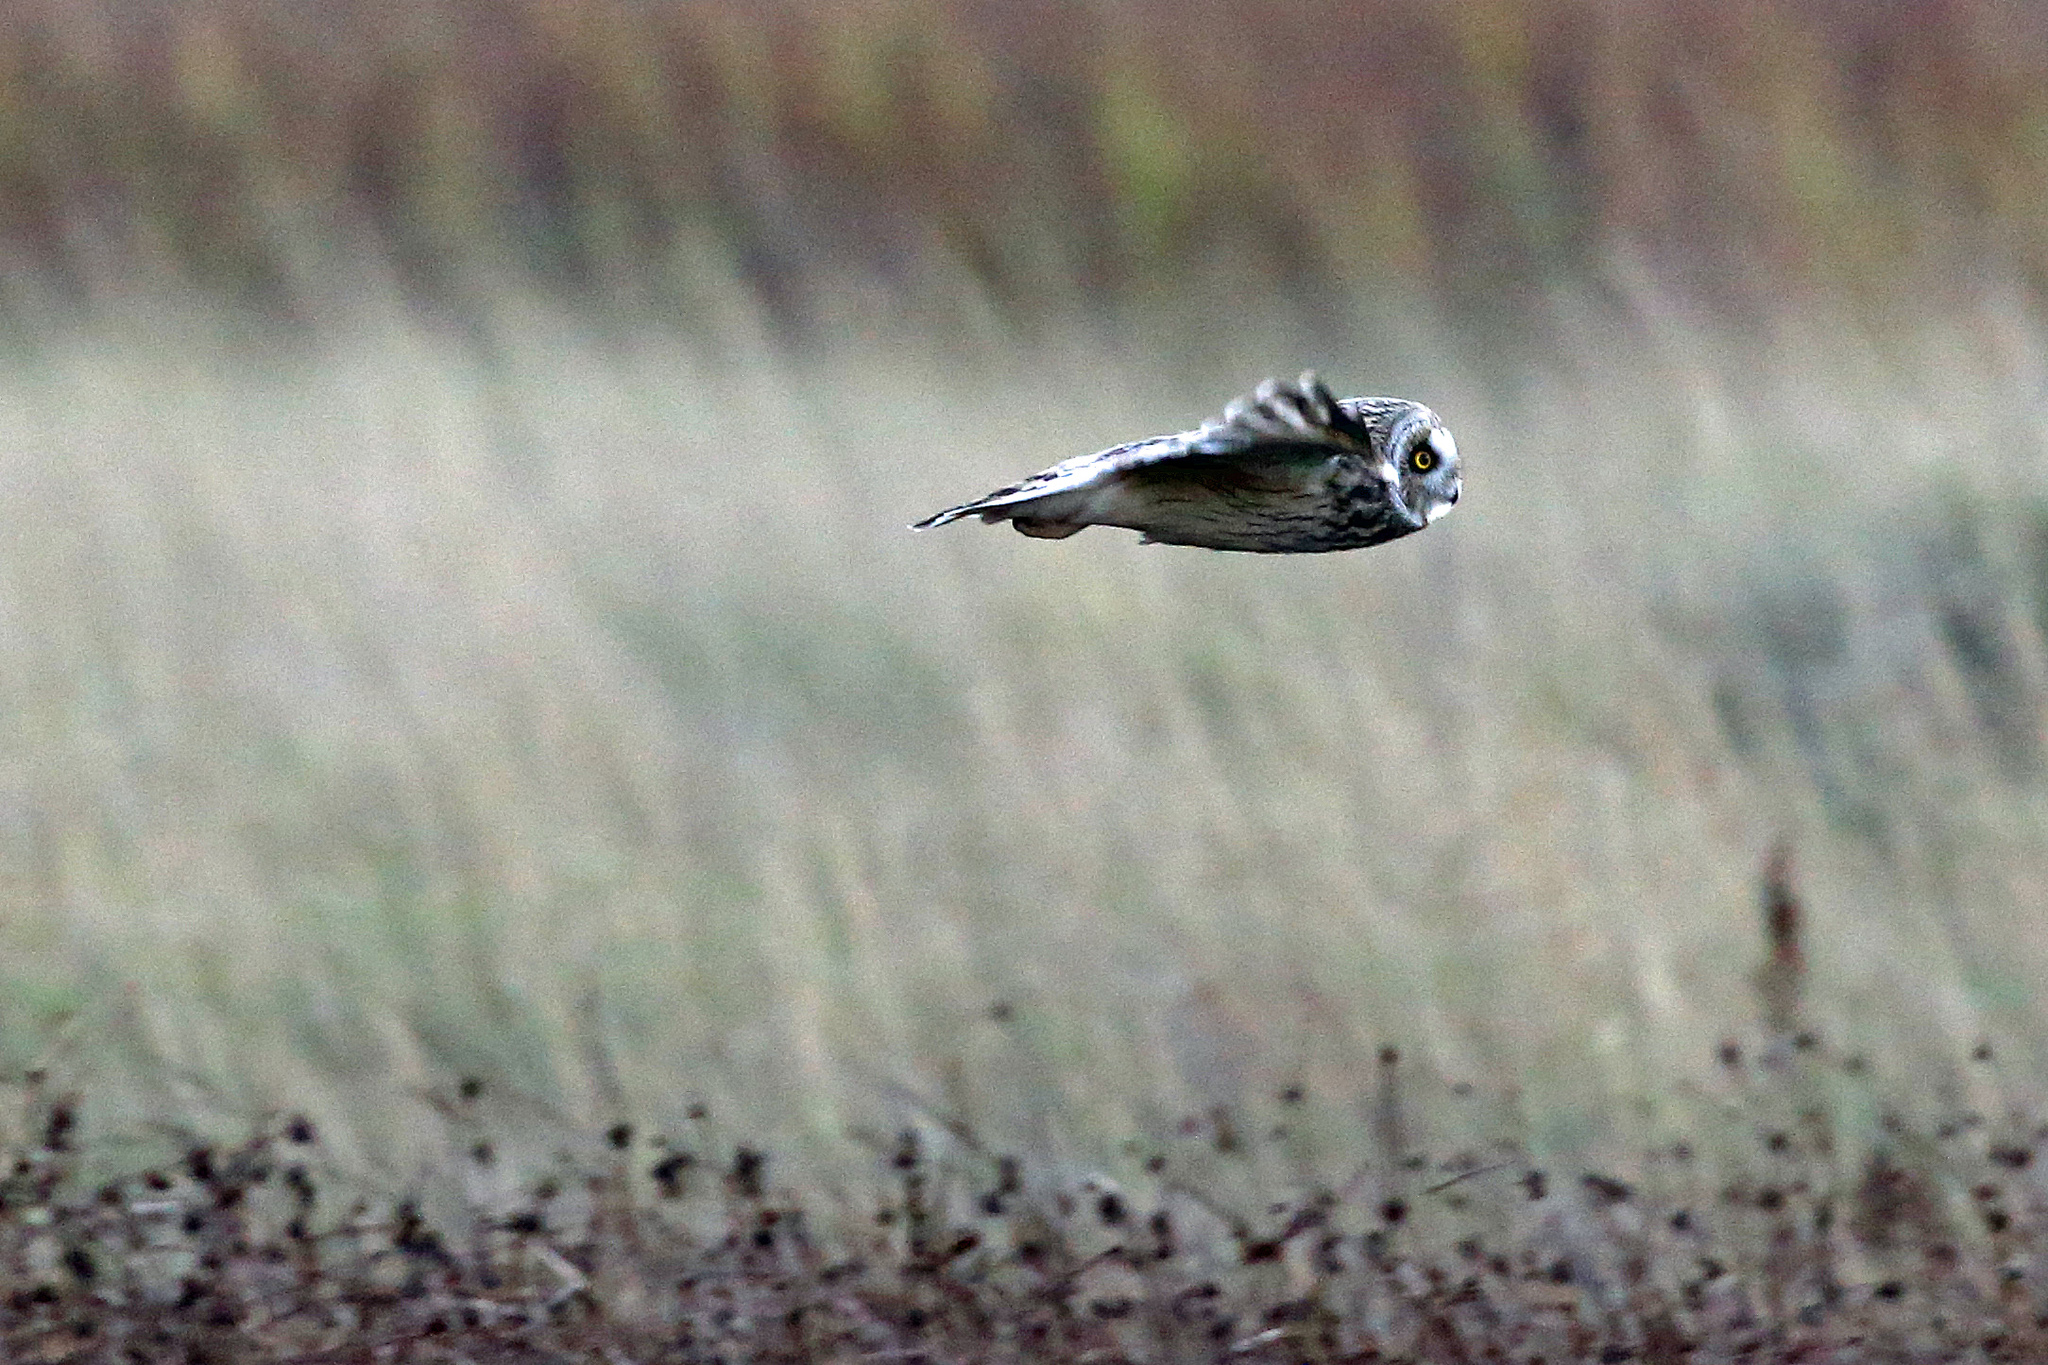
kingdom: Animalia
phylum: Chordata
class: Aves
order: Strigiformes
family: Strigidae
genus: Asio
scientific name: Asio flammeus
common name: Short-eared owl
